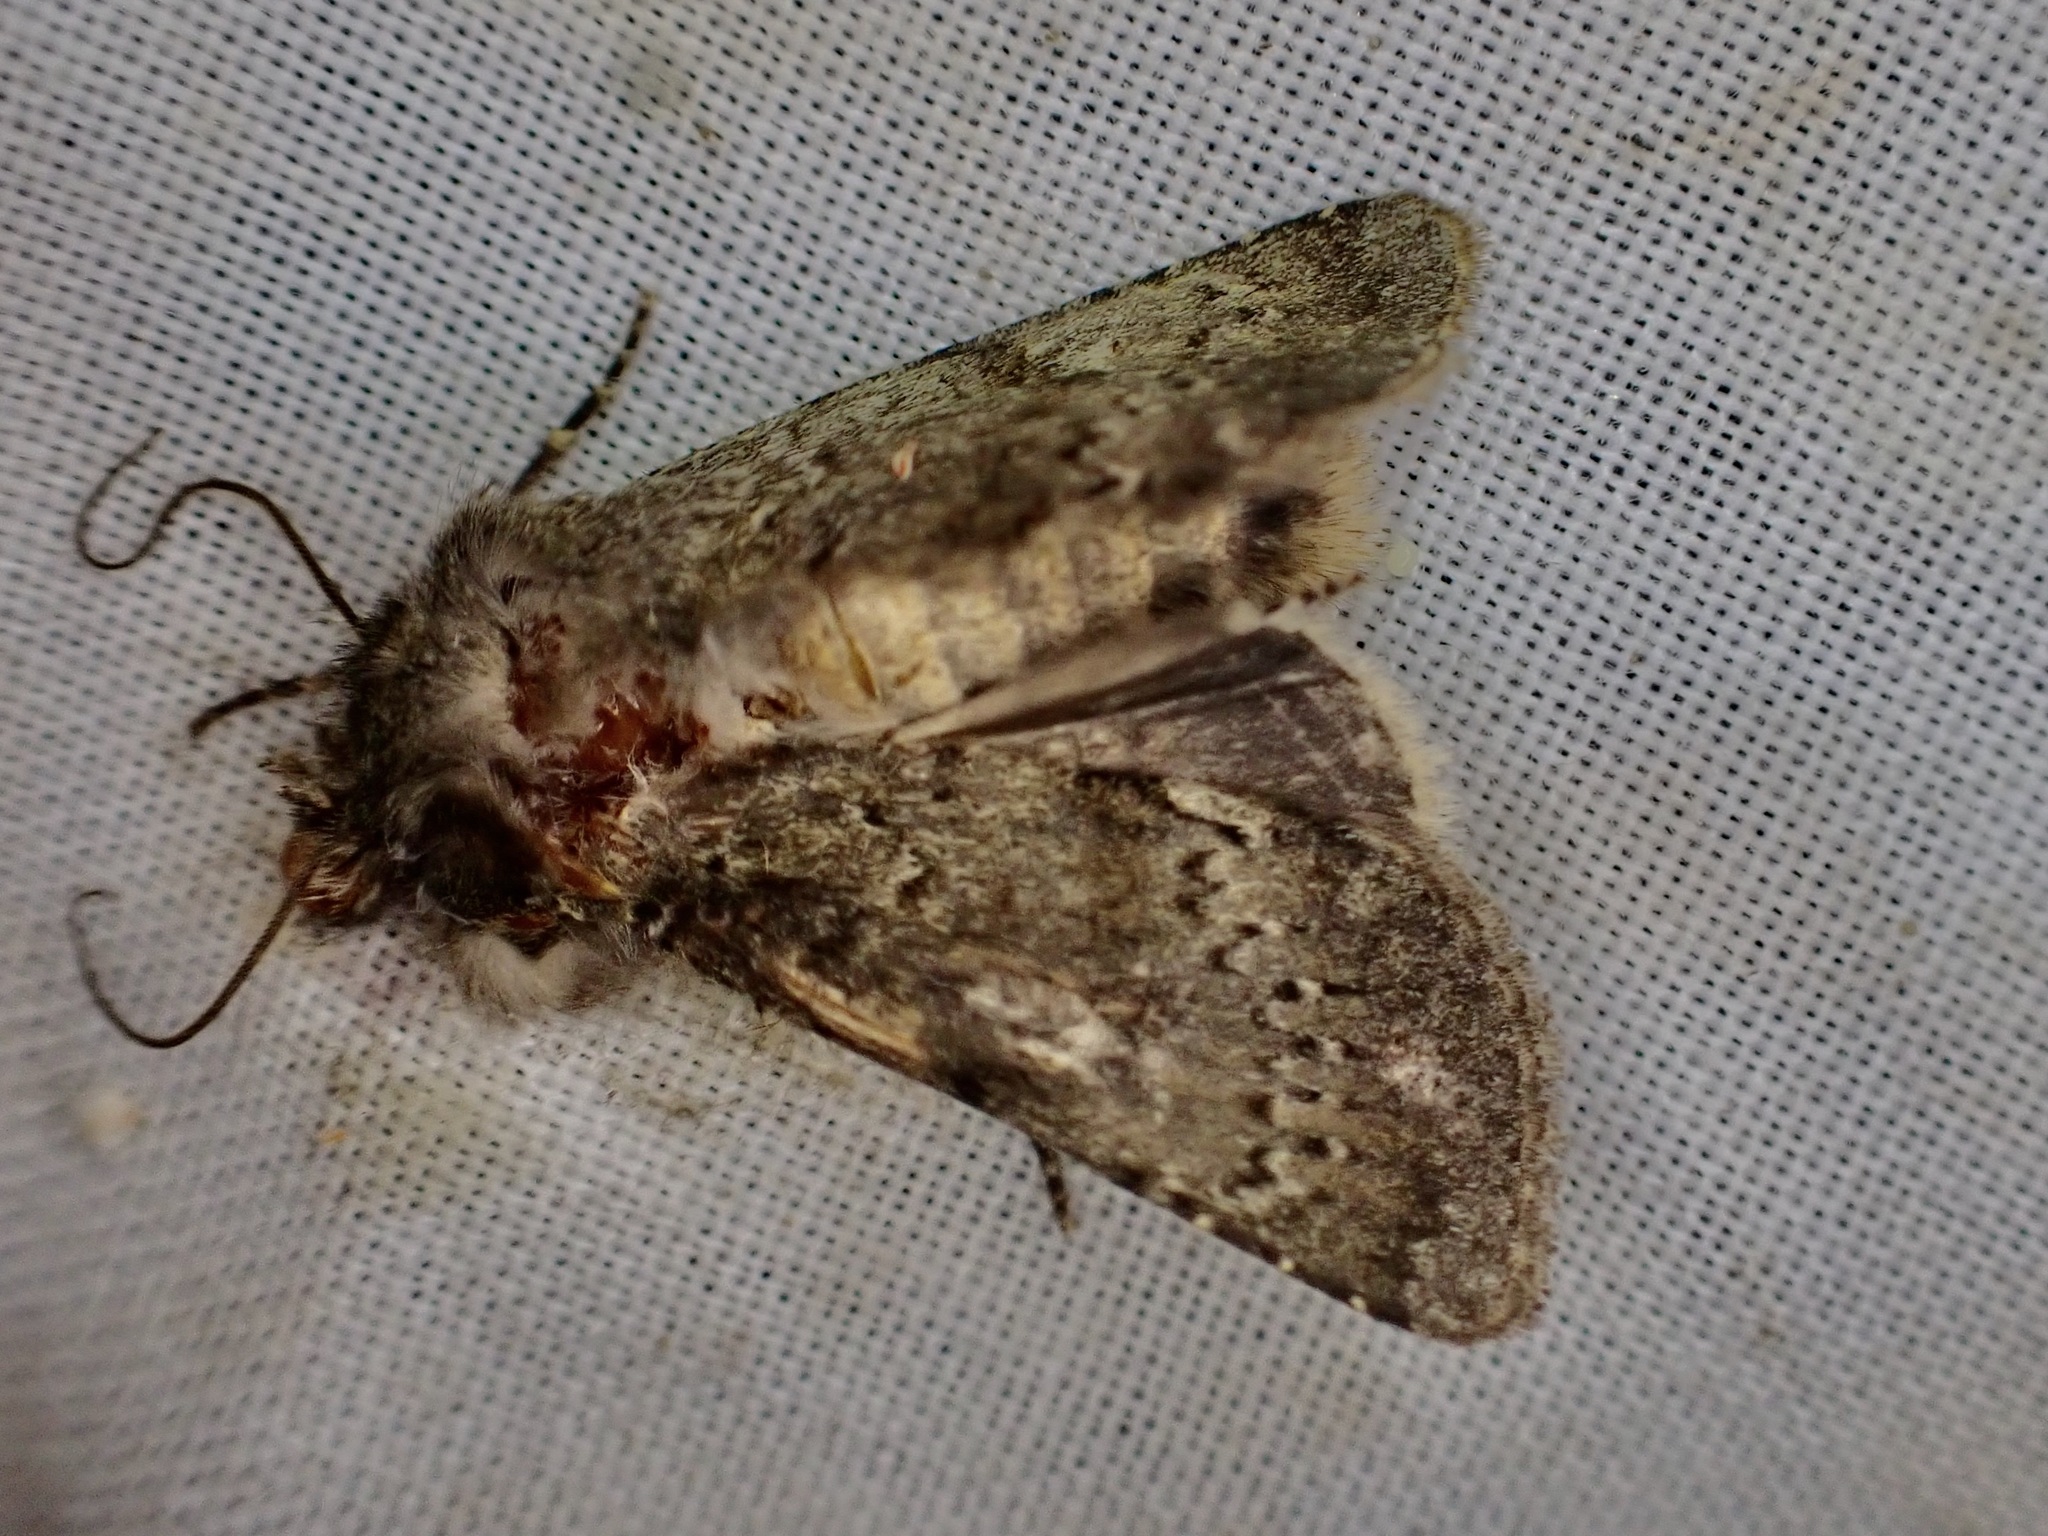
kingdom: Animalia
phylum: Arthropoda
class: Insecta
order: Lepidoptera
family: Noctuidae
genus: Ichneutica
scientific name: Ichneutica moderata
